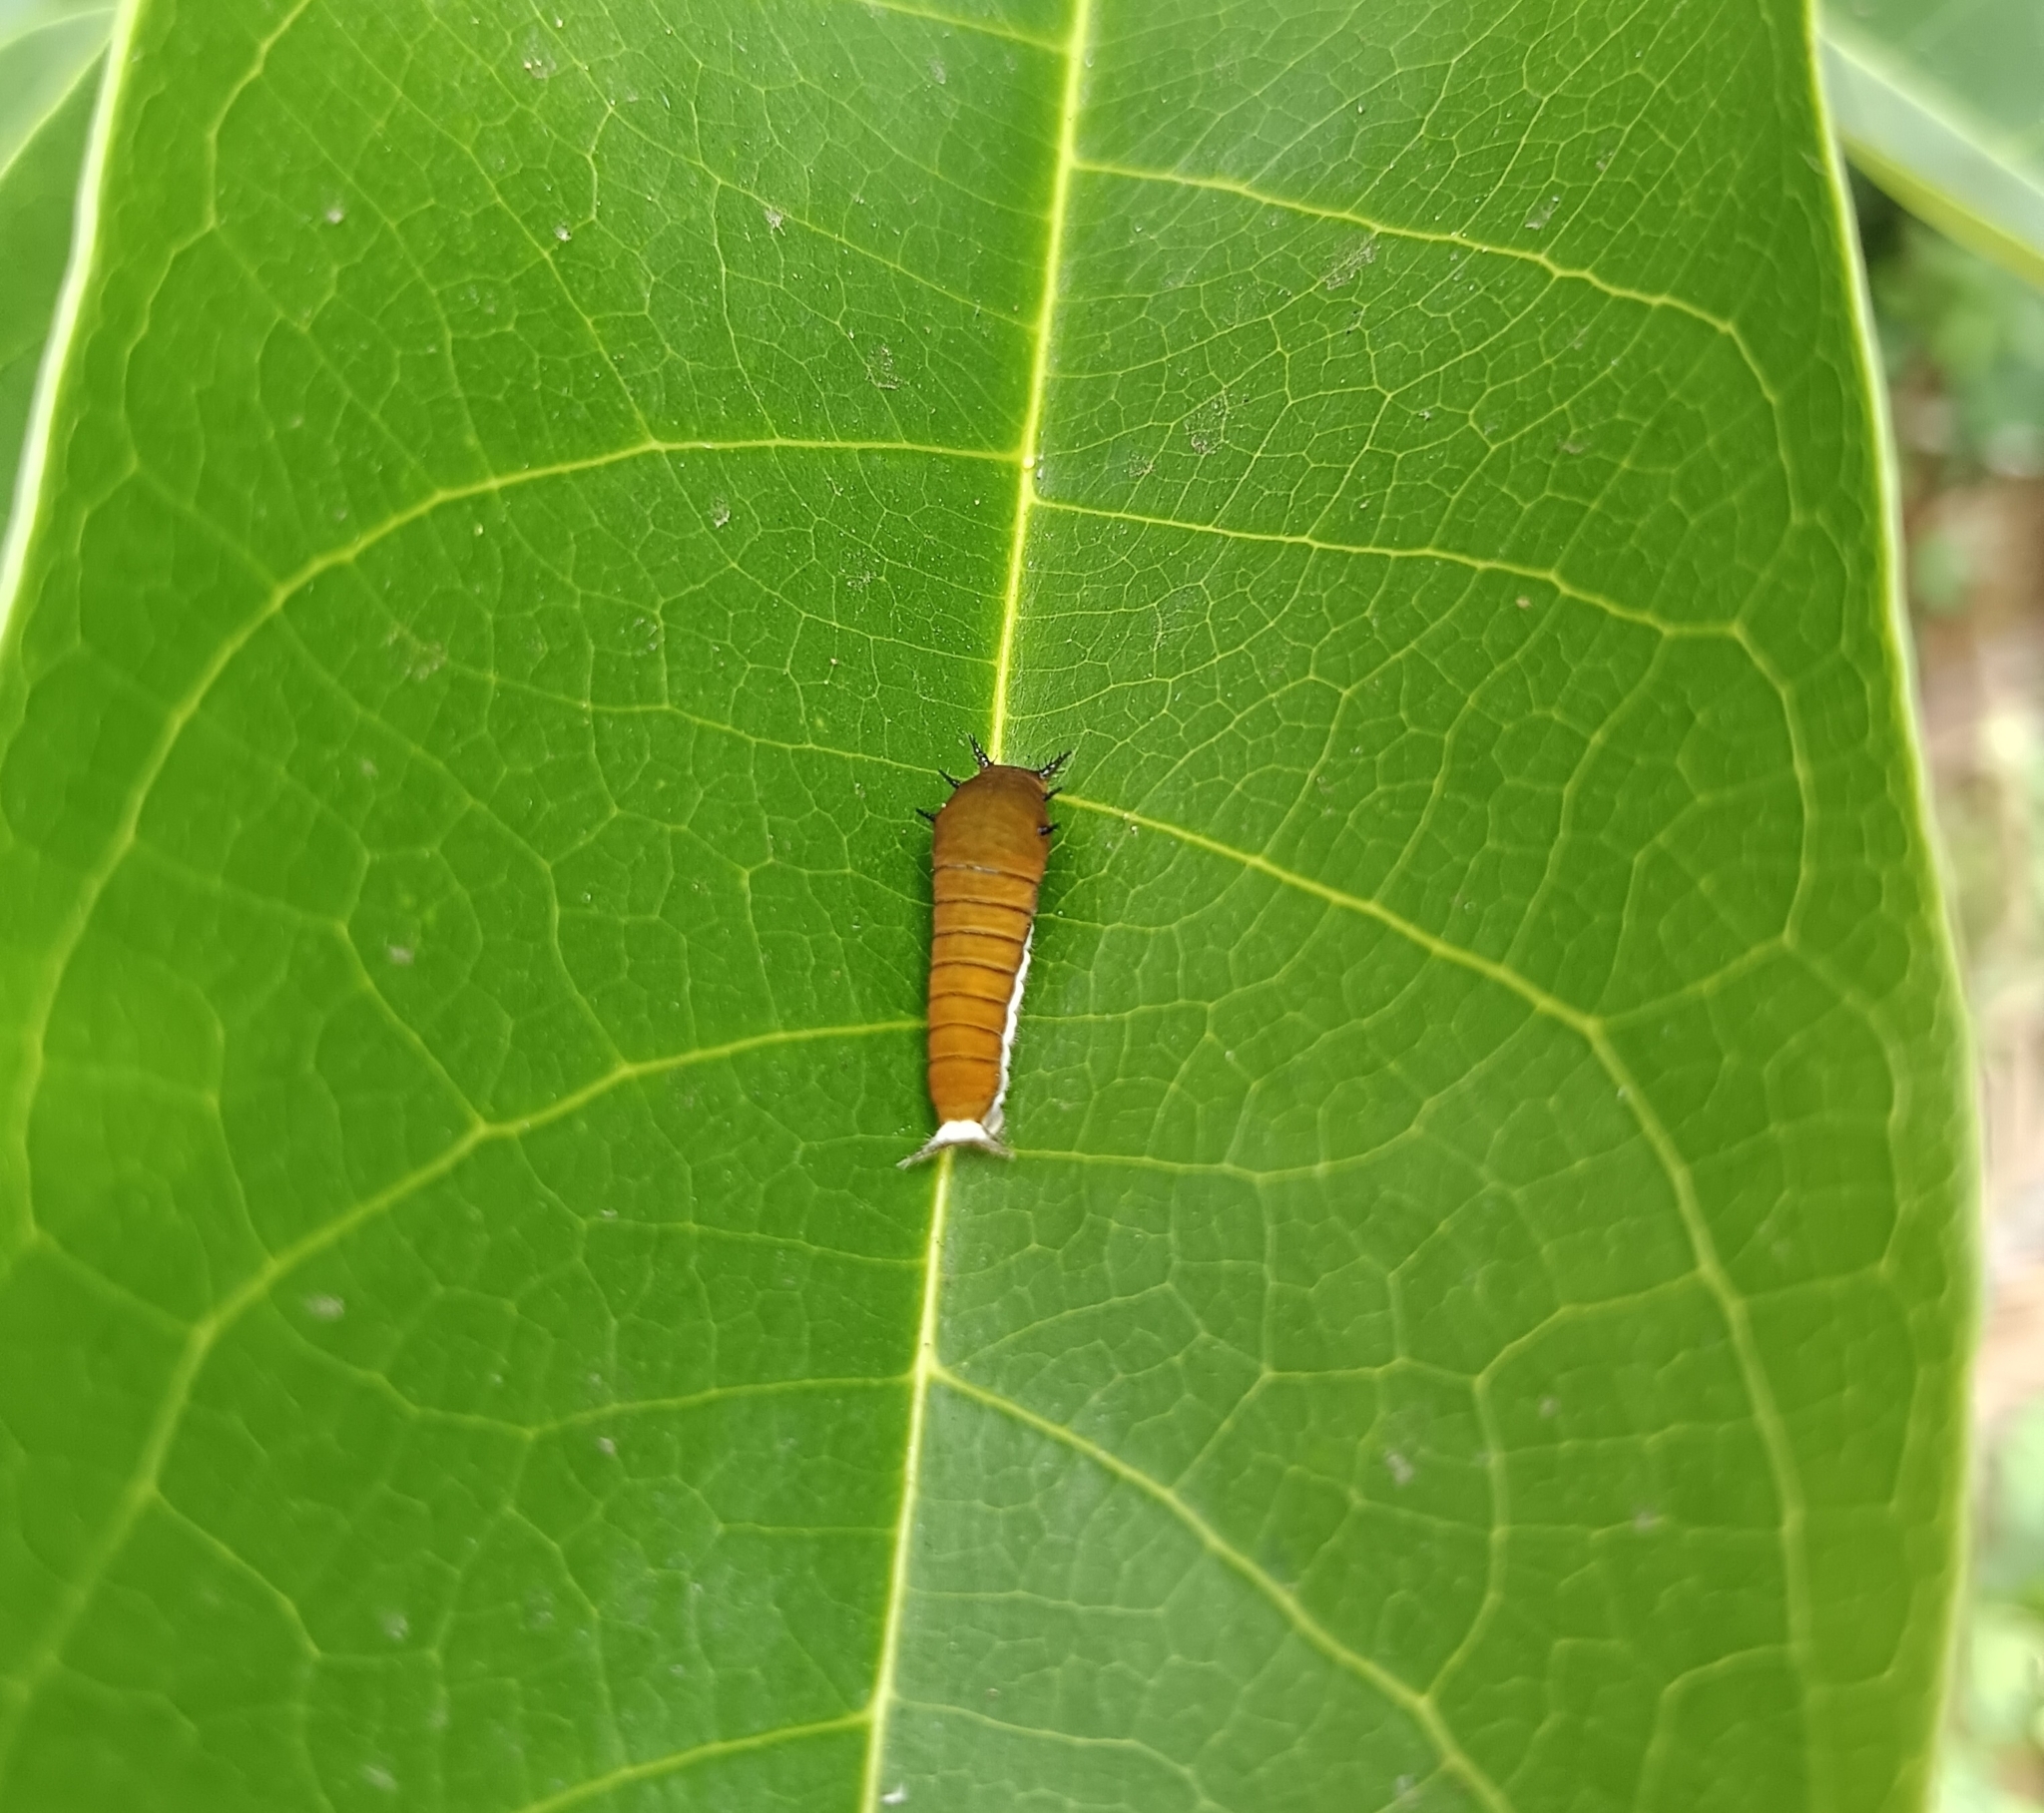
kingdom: Animalia
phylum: Arthropoda
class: Insecta
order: Lepidoptera
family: Papilionidae
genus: Graphium
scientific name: Graphium doson
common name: Common jay
